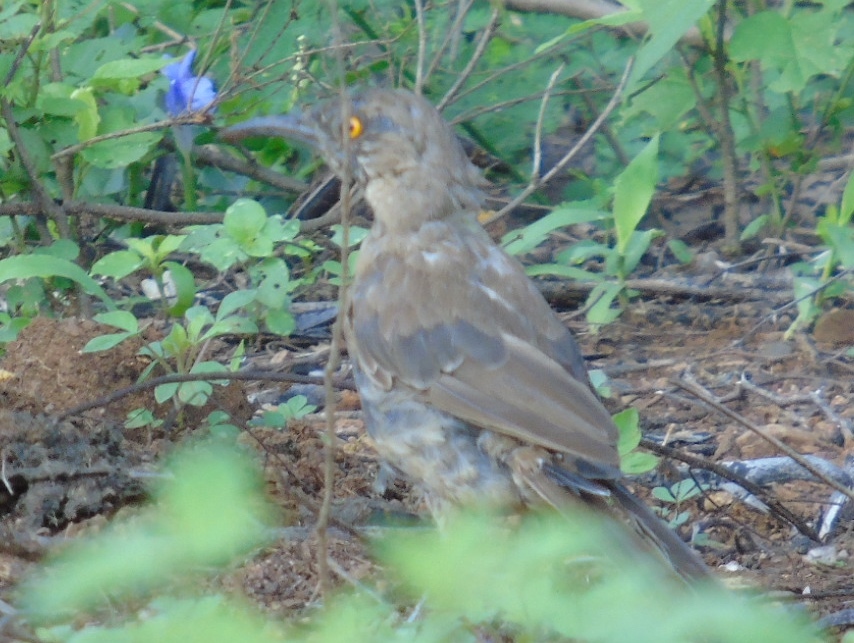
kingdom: Animalia
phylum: Chordata
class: Aves
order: Passeriformes
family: Mimidae
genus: Toxostoma
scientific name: Toxostoma curvirostre
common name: Curve-billed thrasher
